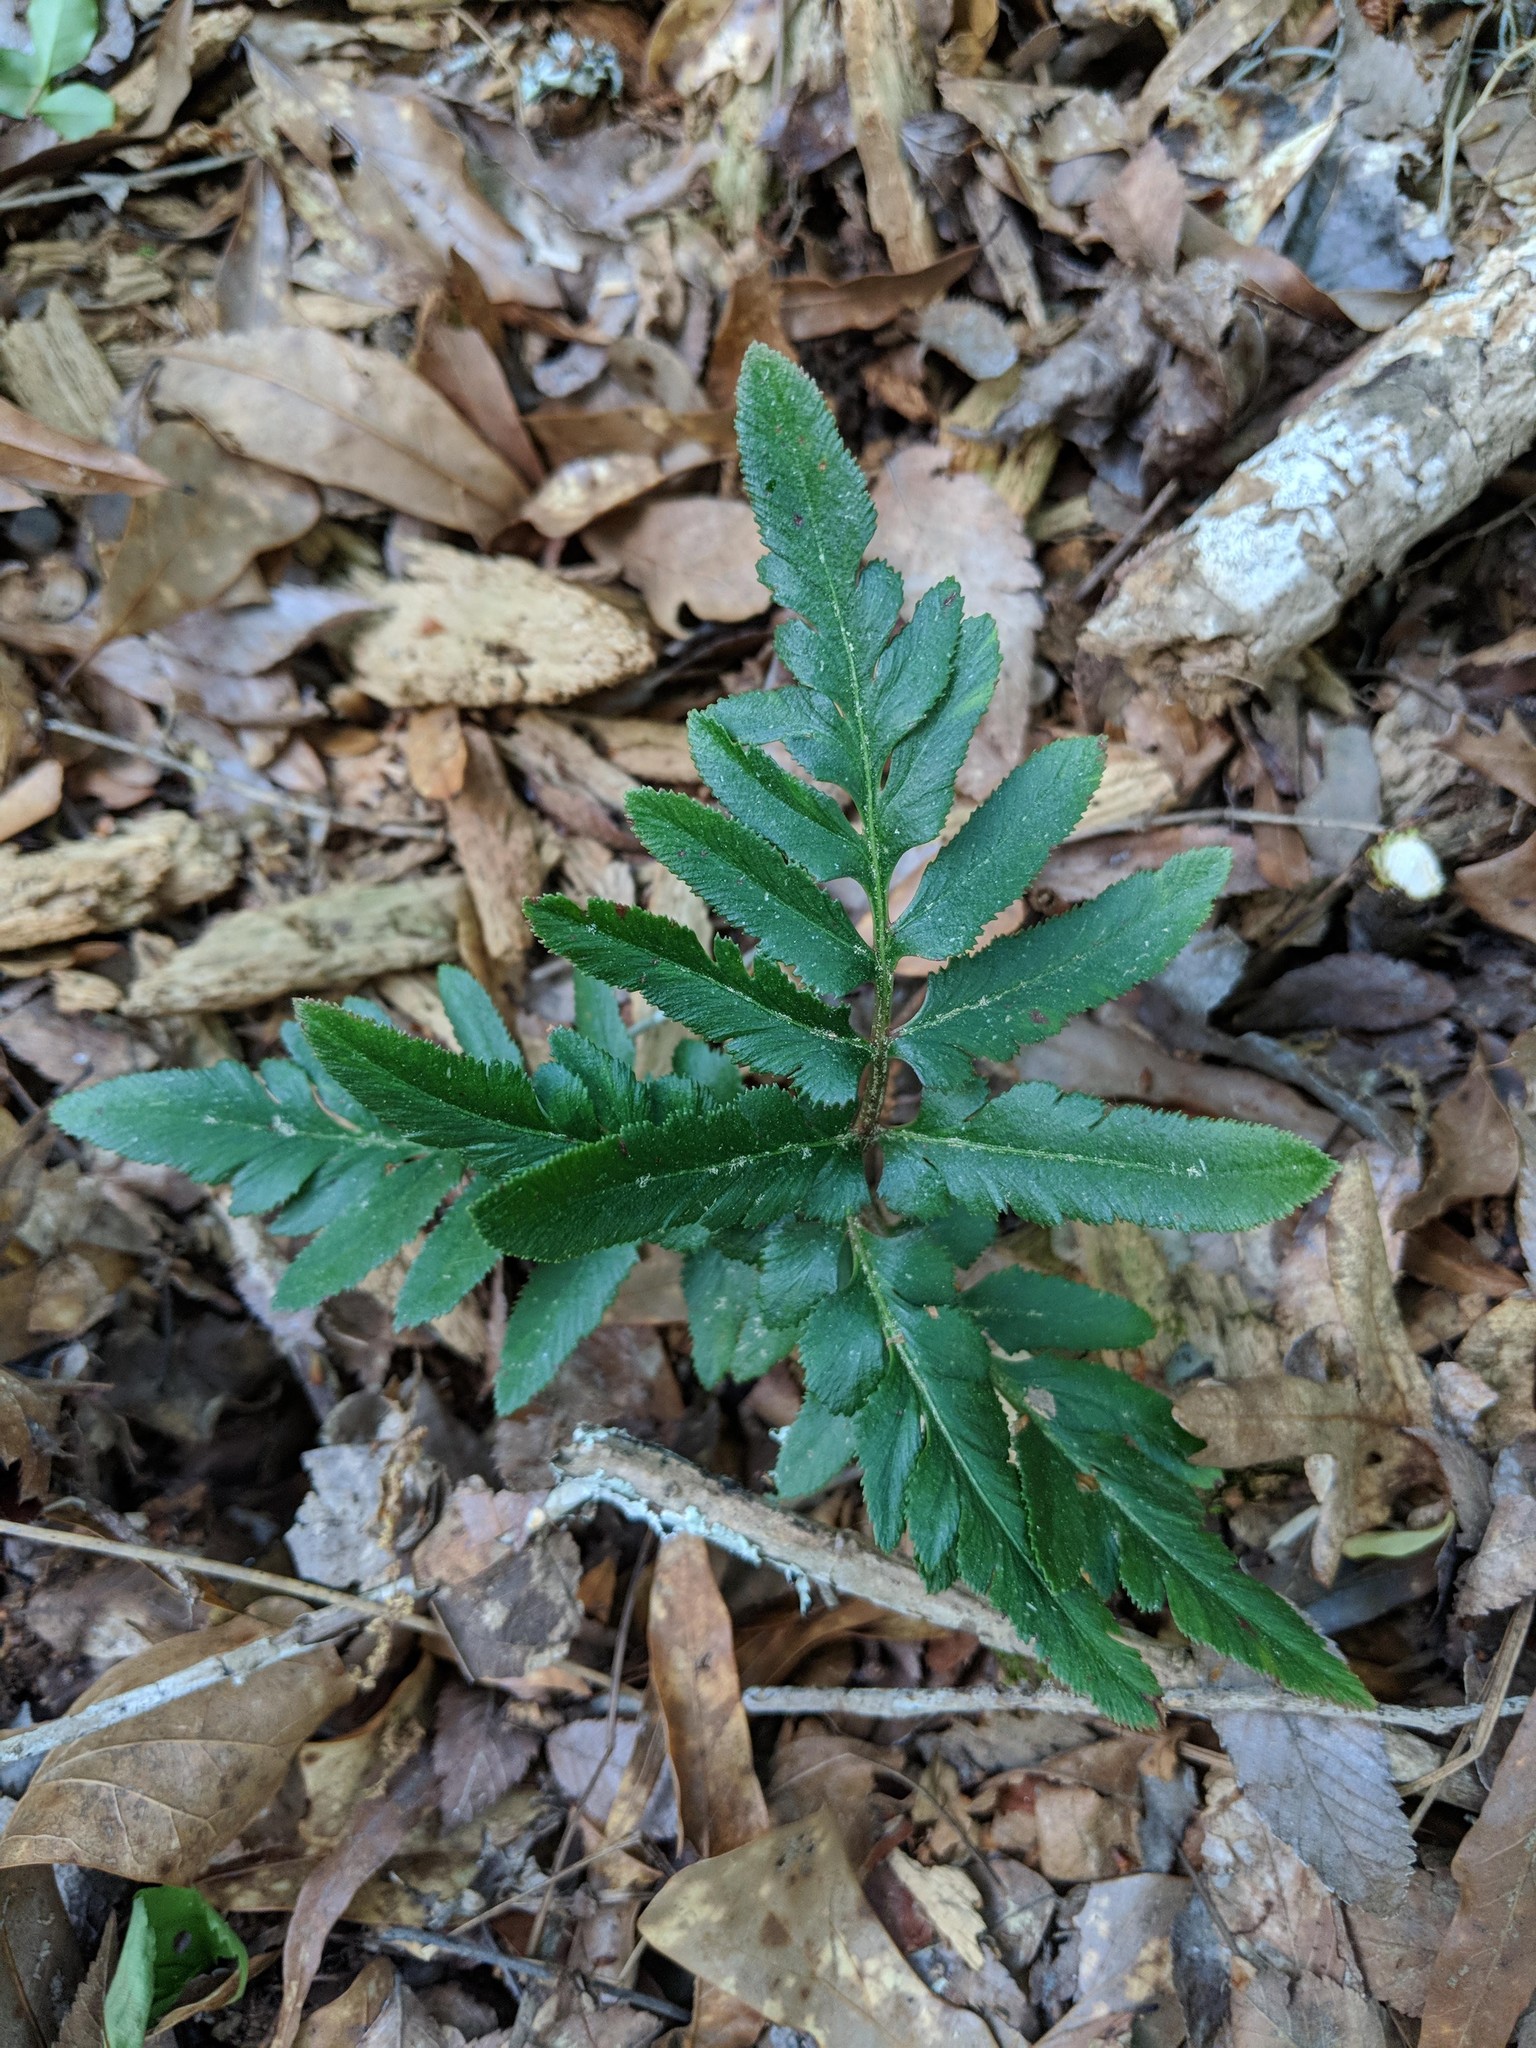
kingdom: Plantae
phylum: Tracheophyta
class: Polypodiopsida
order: Ophioglossales
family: Ophioglossaceae
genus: Sceptridium
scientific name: Sceptridium dissectum
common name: Cut-leaved grapefern
